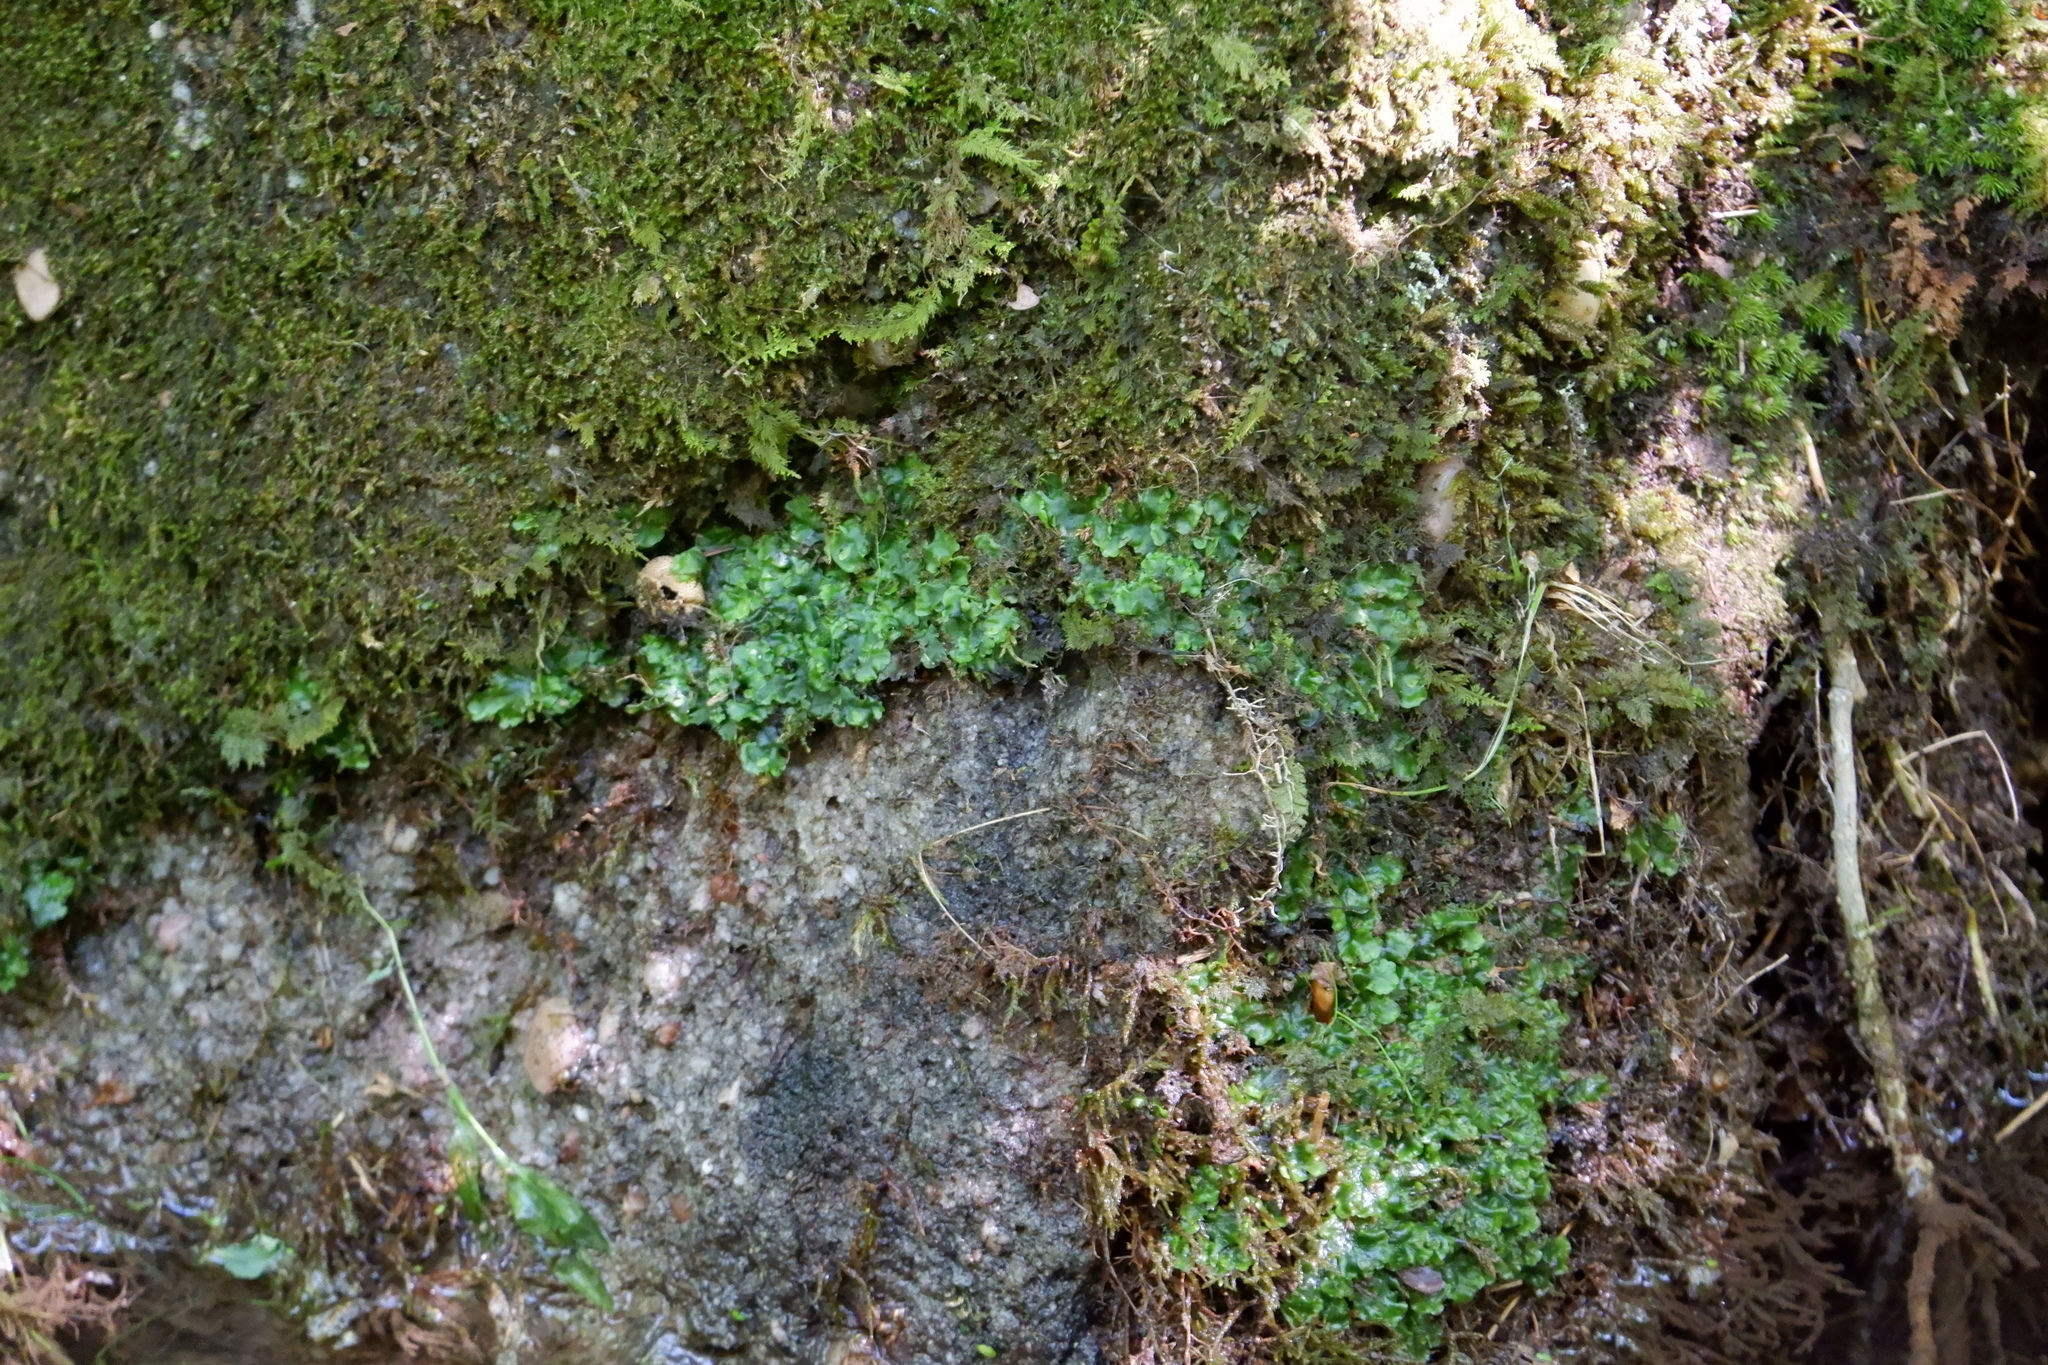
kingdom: Plantae
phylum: Marchantiophyta
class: Jungermanniopsida
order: Pelliales
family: Pelliaceae
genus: Pellia
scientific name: Pellia epiphylla
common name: Common pellia
